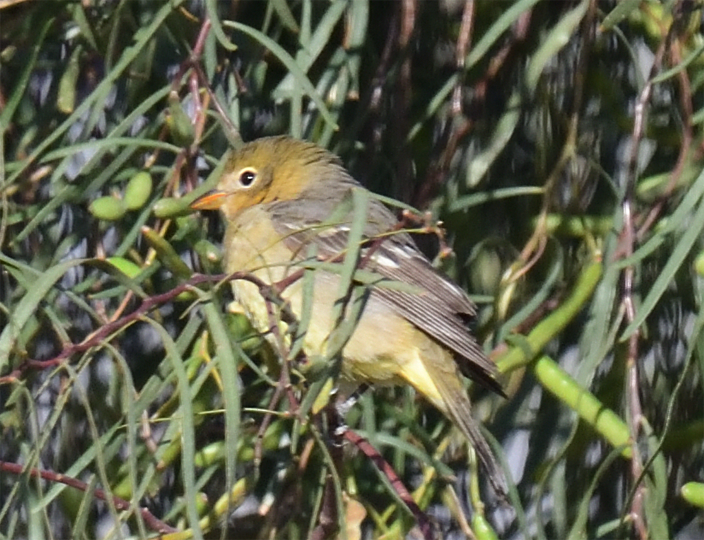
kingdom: Animalia
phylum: Chordata
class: Aves
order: Passeriformes
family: Cardinalidae
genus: Piranga
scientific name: Piranga ludoviciana
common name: Western tanager
